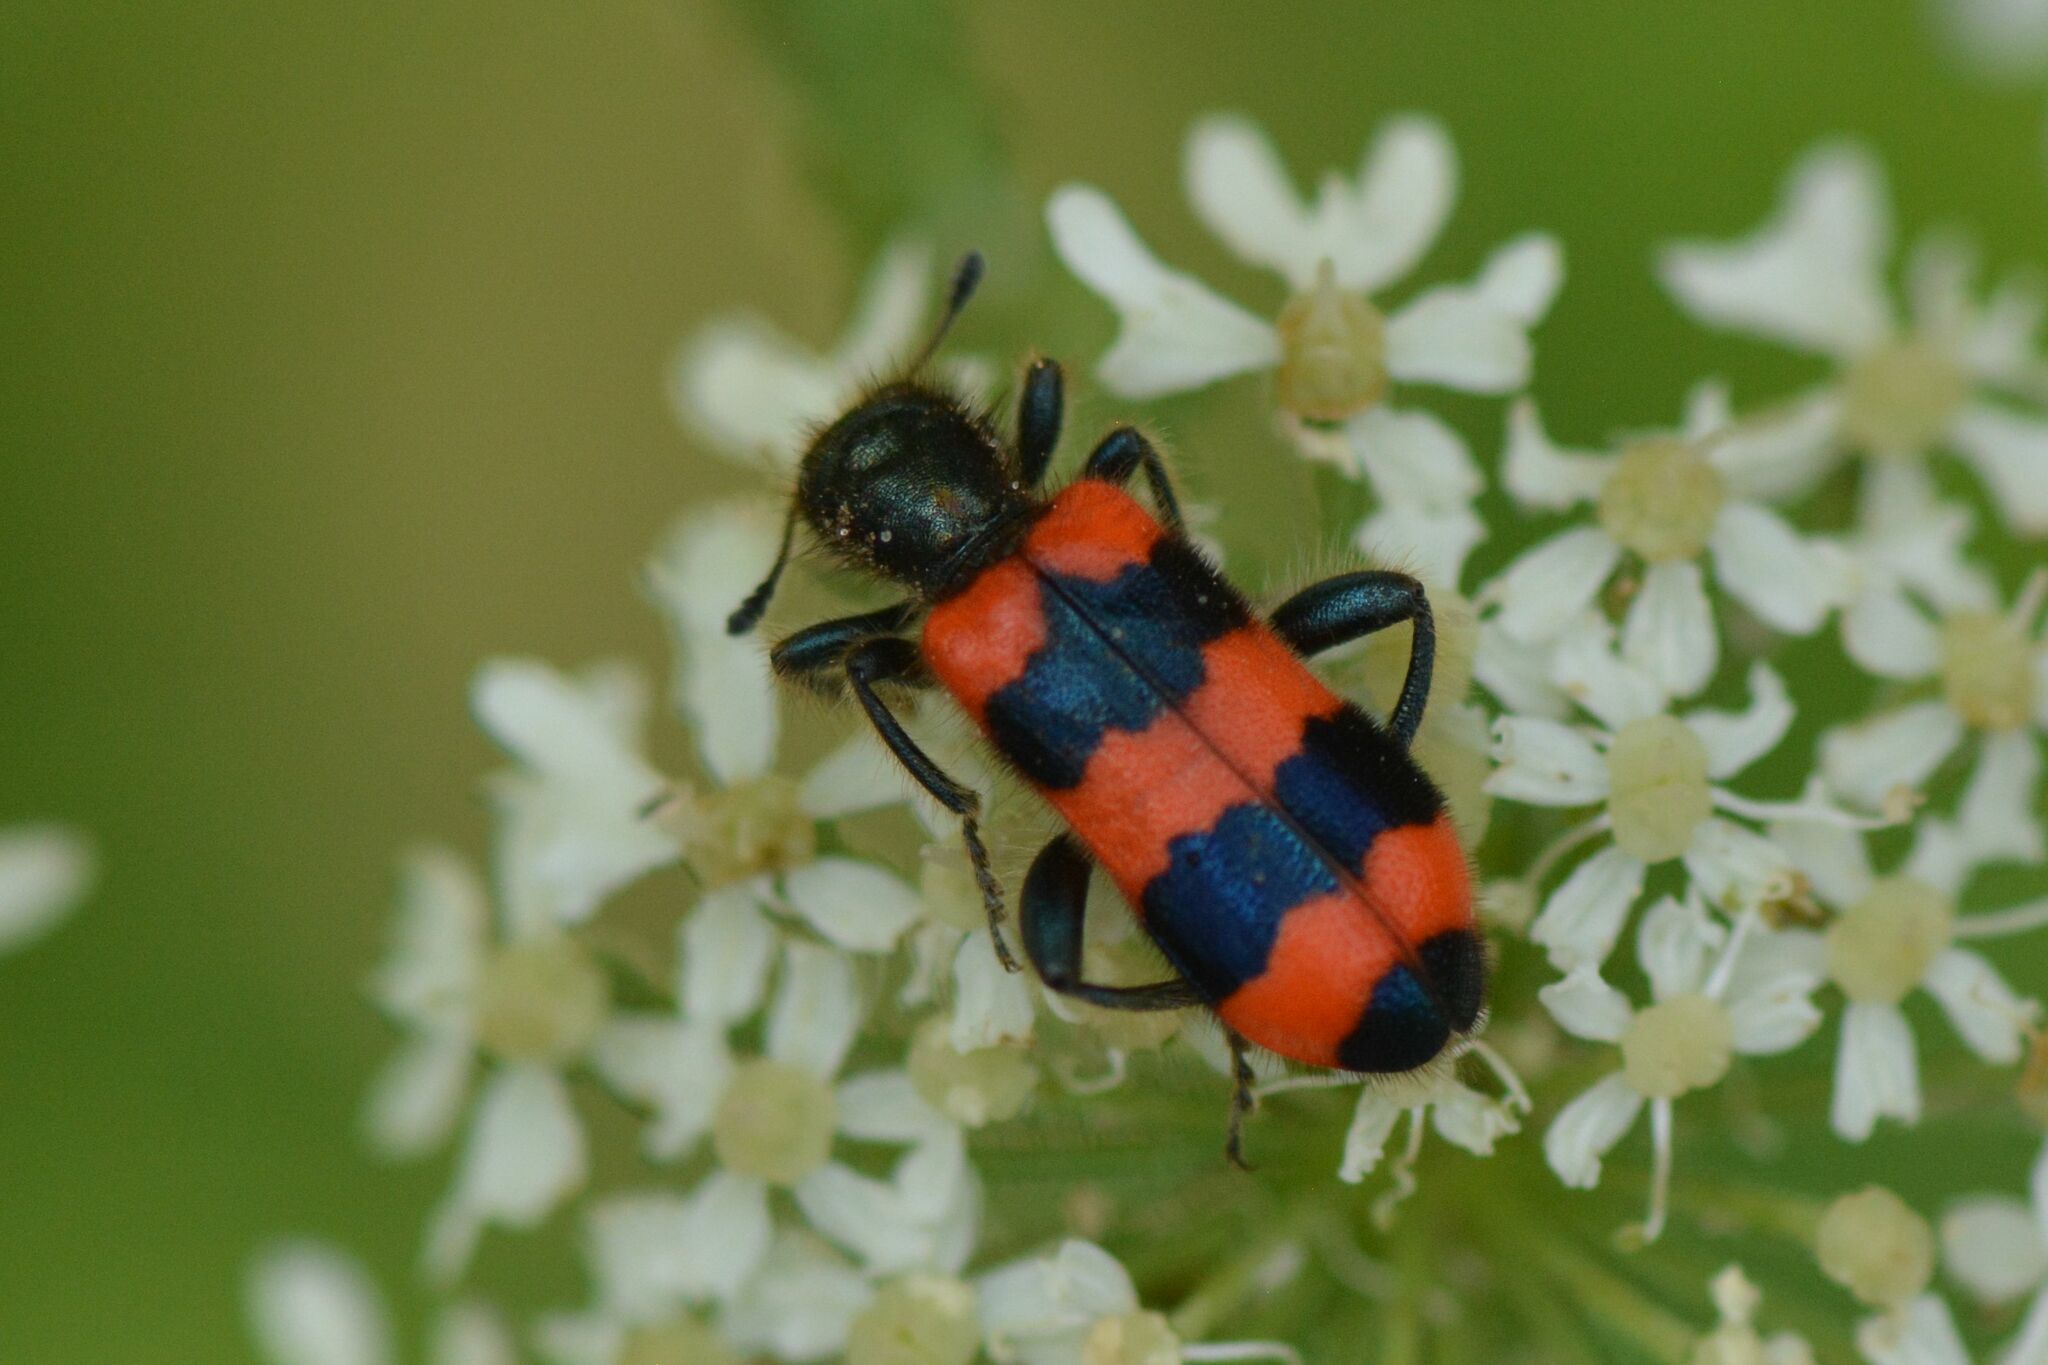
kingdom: Animalia
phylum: Arthropoda
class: Insecta
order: Coleoptera
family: Cleridae
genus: Trichodes
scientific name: Trichodes apiarius
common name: Bee-eating beetle
